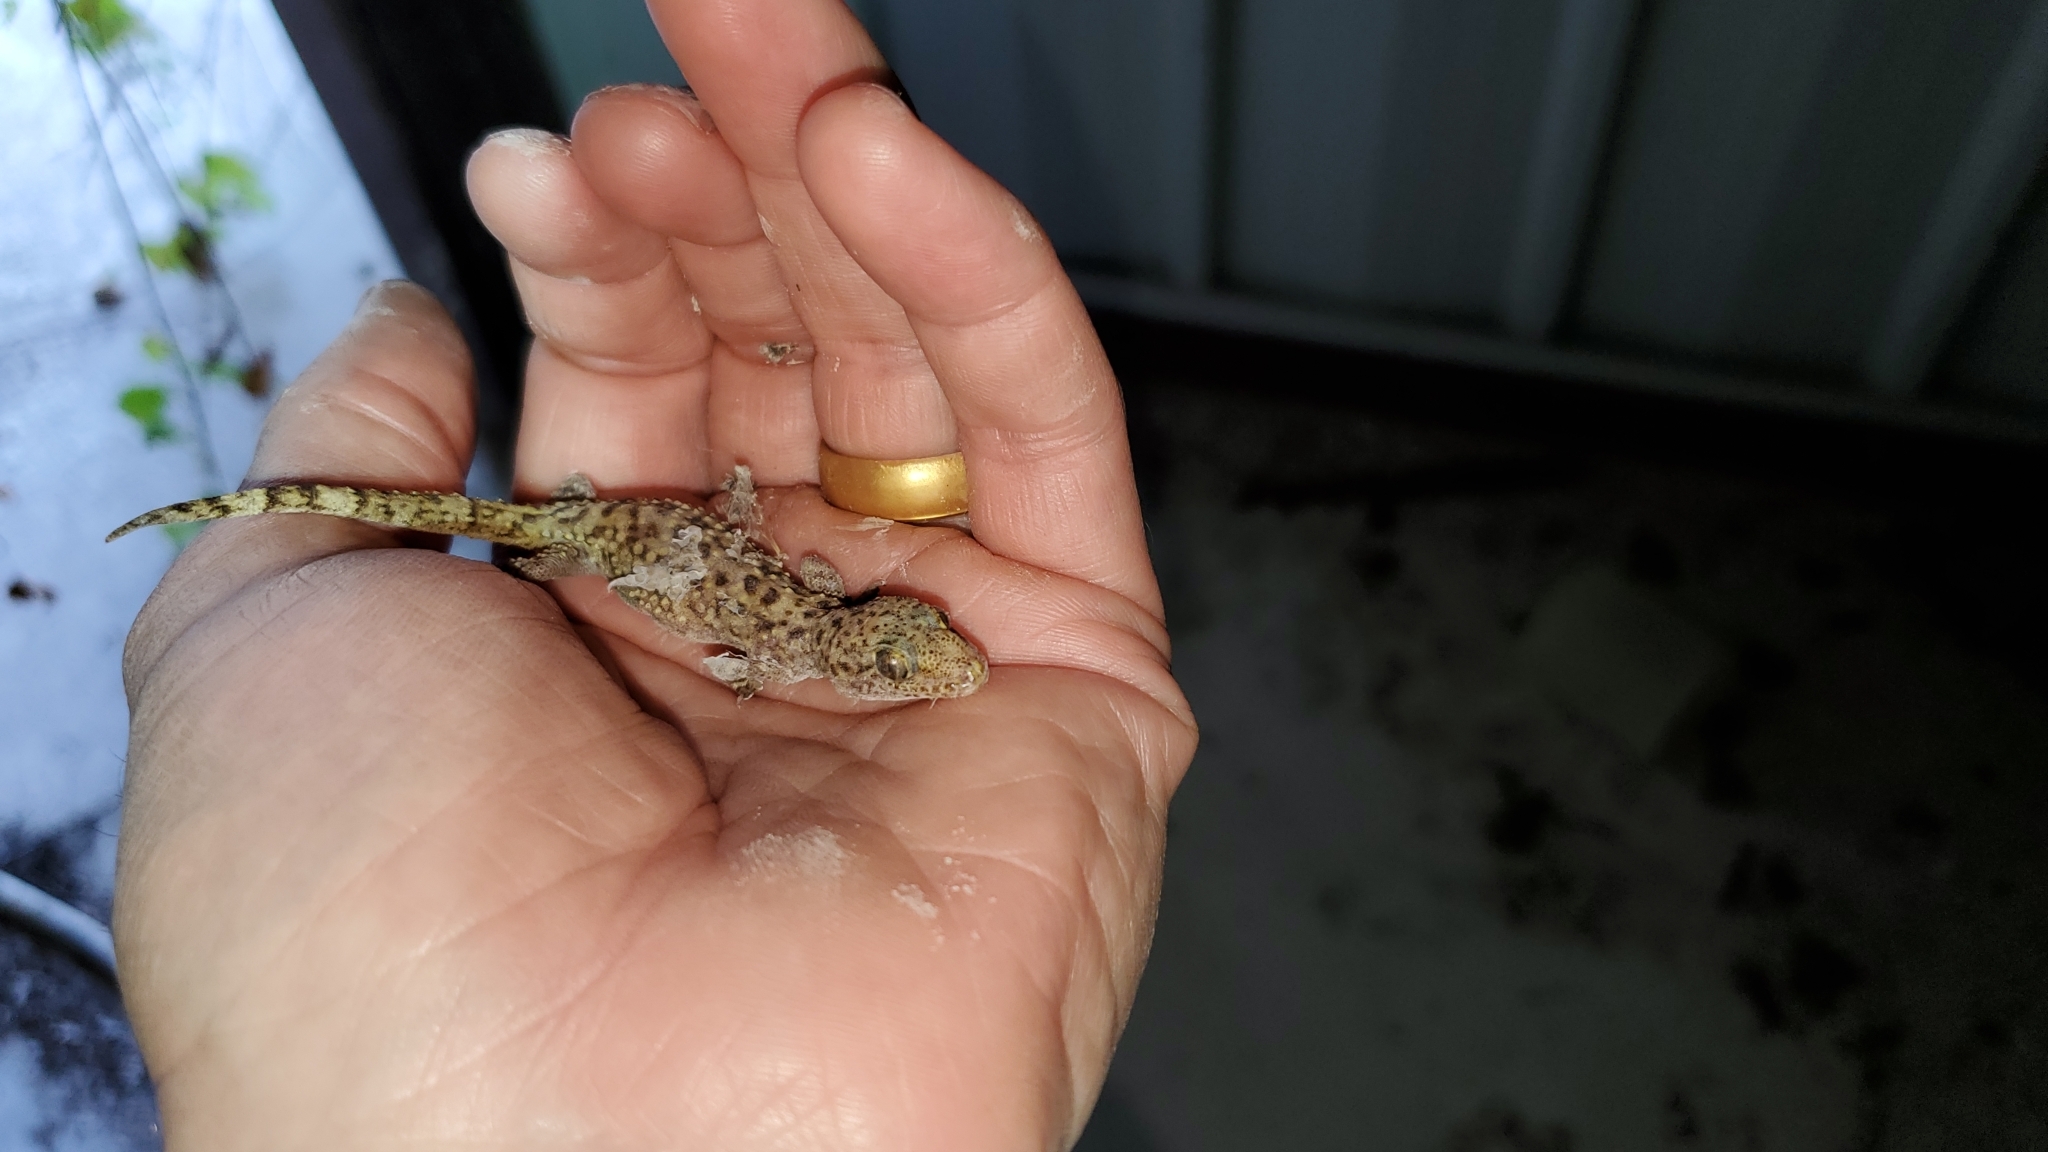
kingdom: Animalia
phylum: Chordata
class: Squamata
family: Gekkonidae
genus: Hemidactylus
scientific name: Hemidactylus turcicus
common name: Turkish gecko
